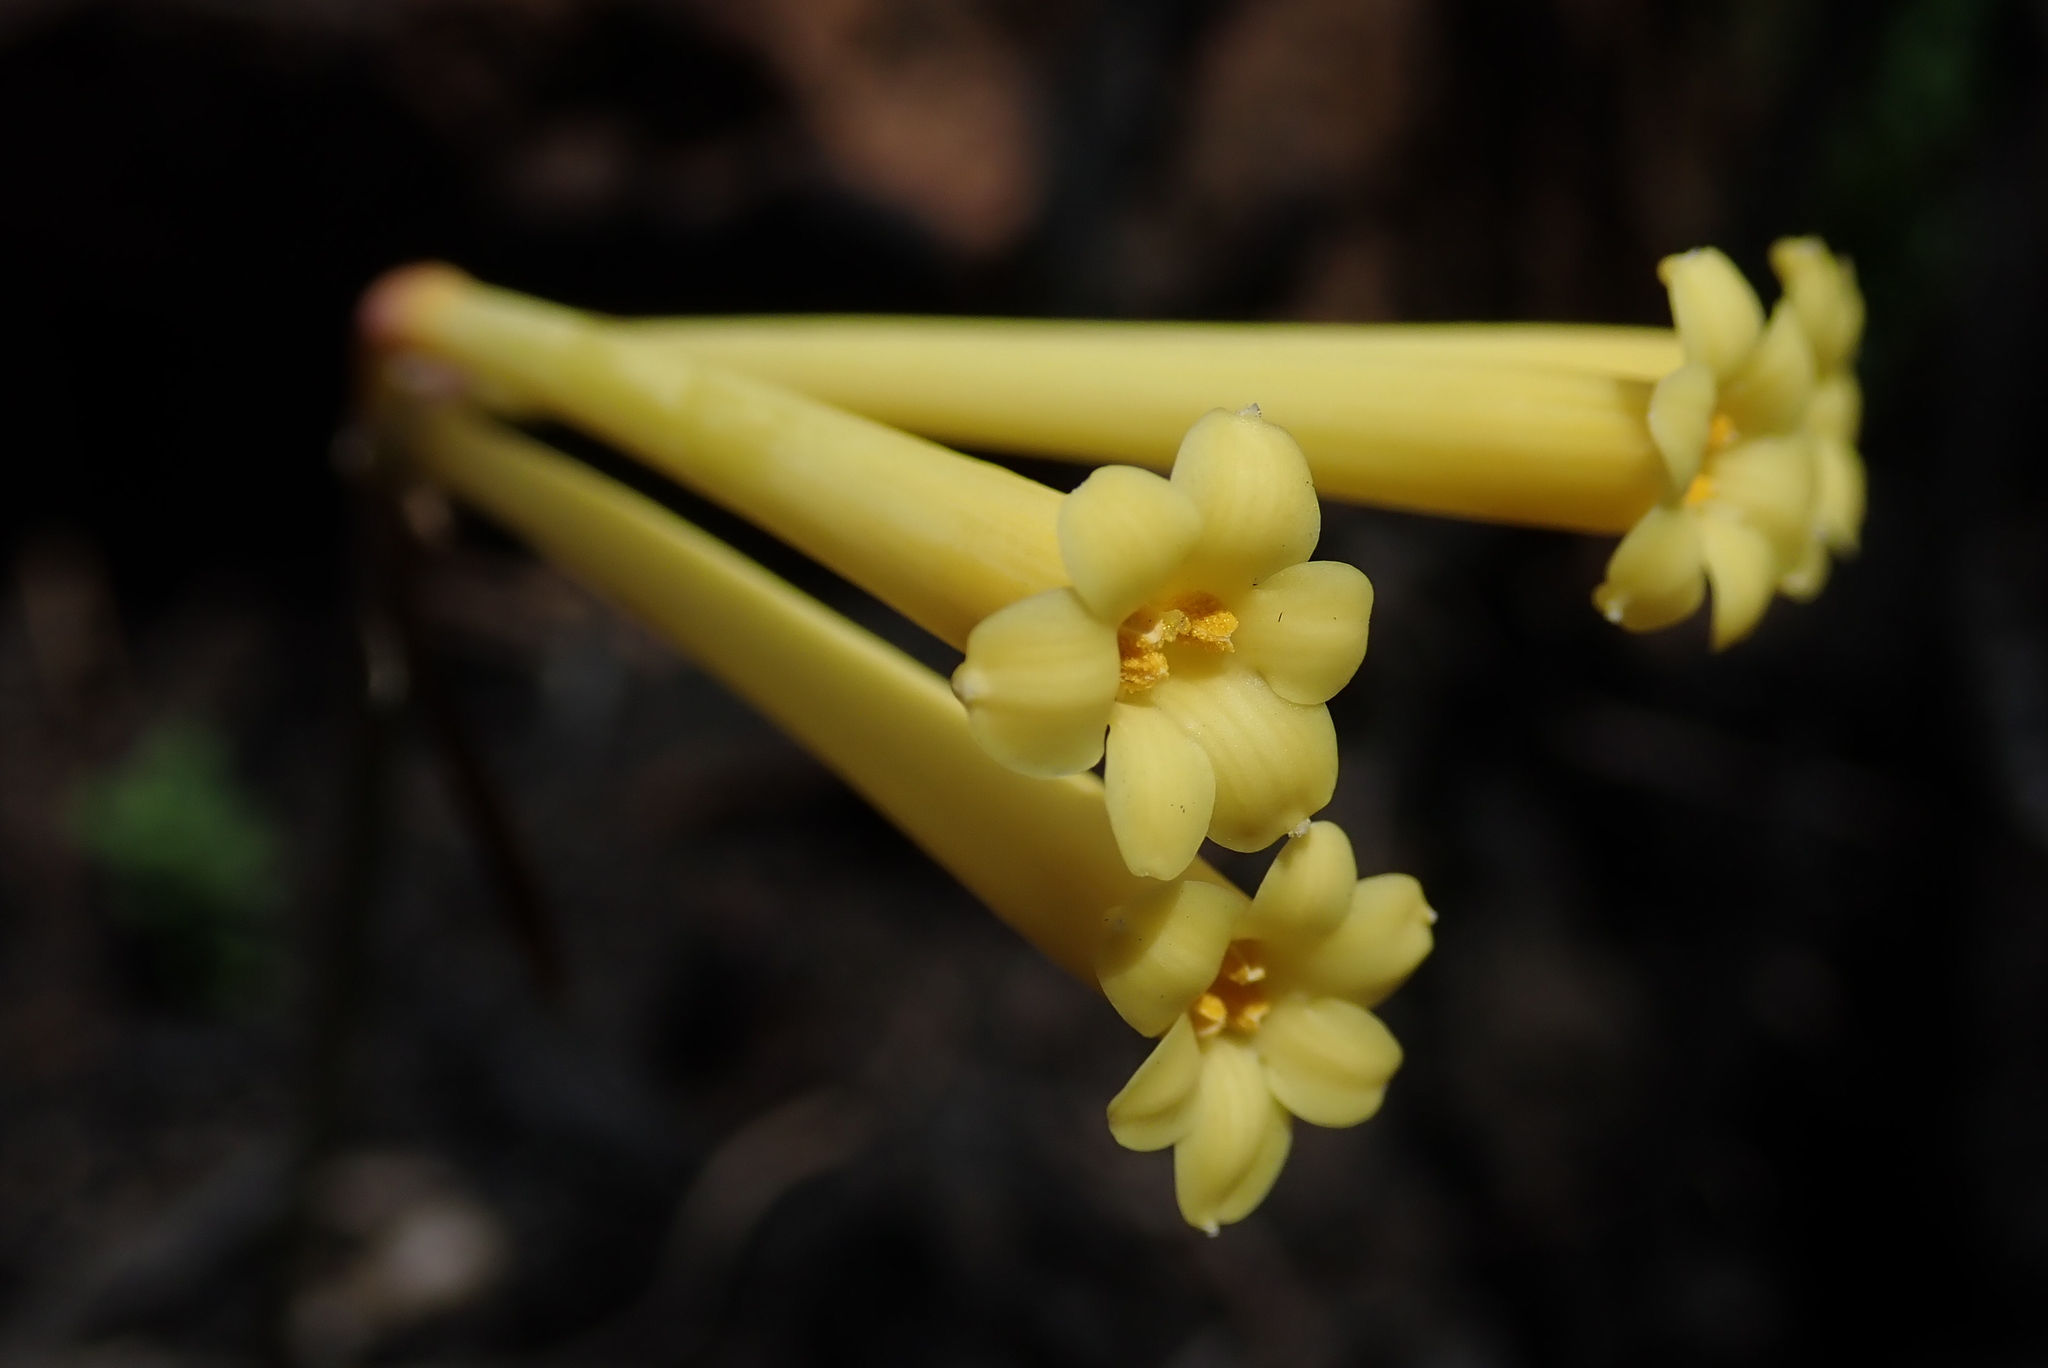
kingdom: Plantae
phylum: Tracheophyta
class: Liliopsida
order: Asparagales
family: Amaryllidaceae
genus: Cyrtanthus
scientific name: Cyrtanthus stenanthus
